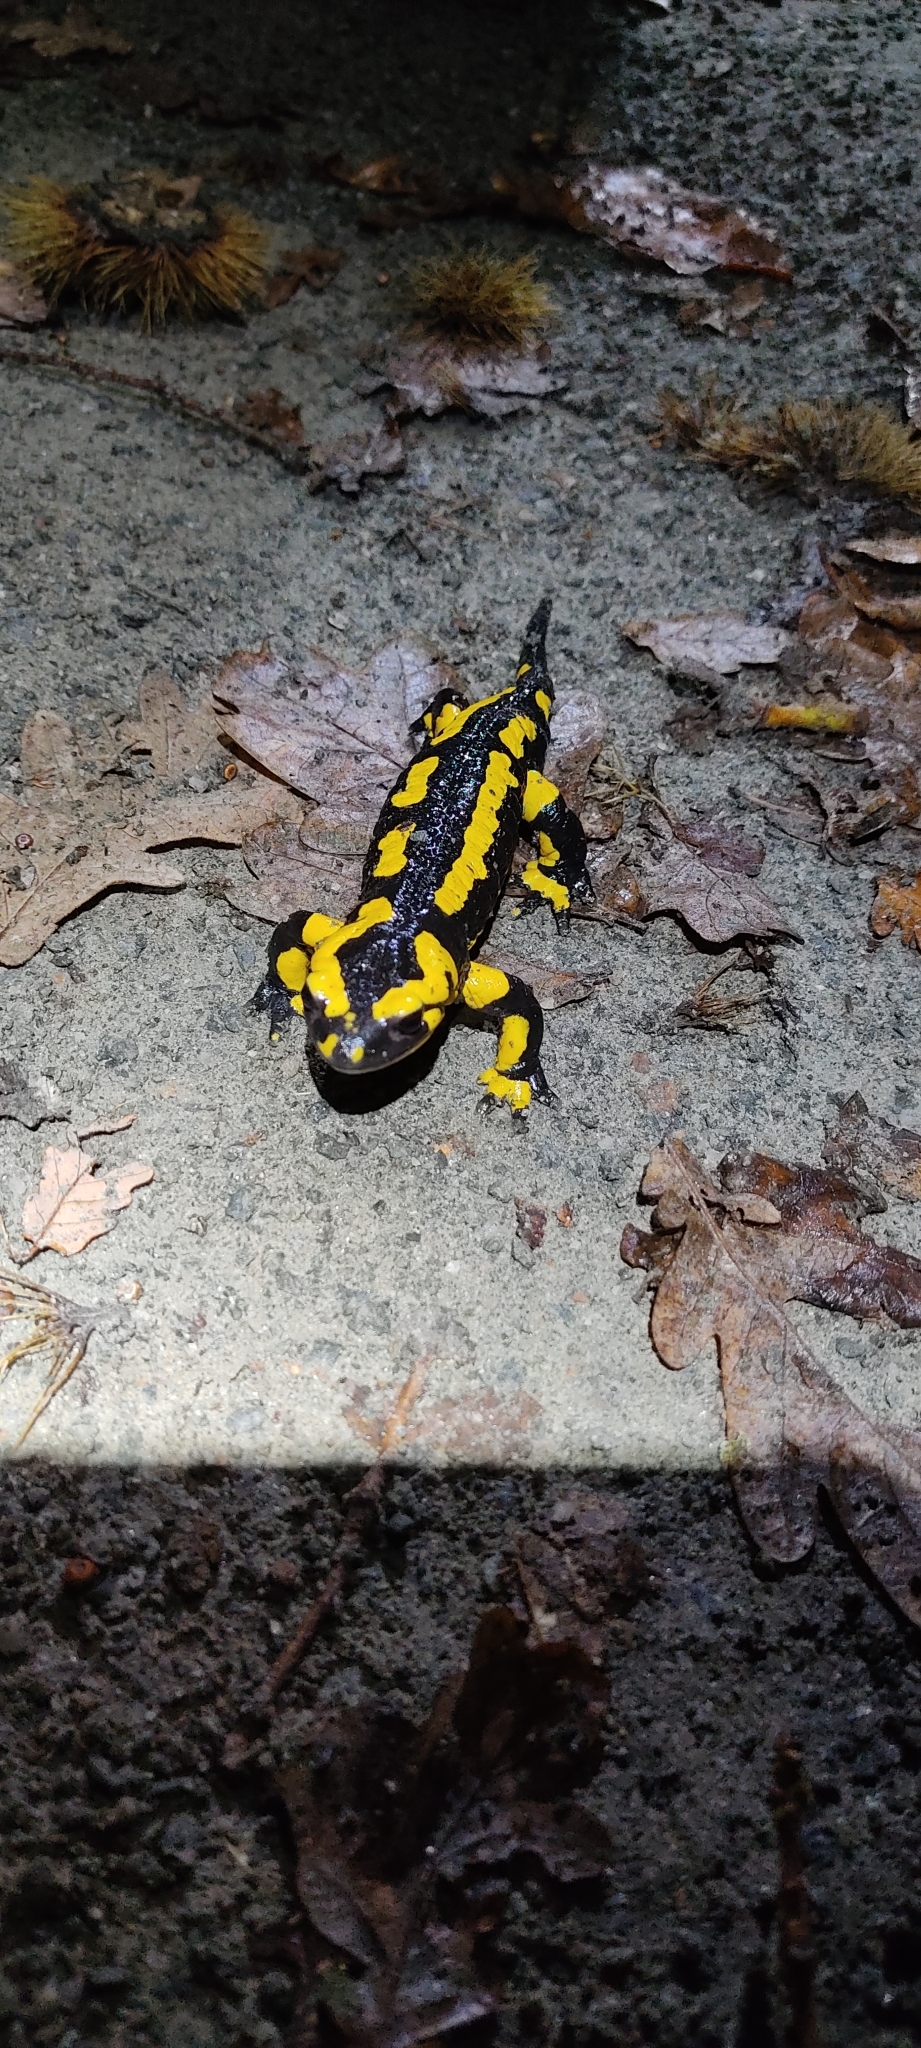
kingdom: Animalia
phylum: Chordata
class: Amphibia
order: Caudata
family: Salamandridae
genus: Salamandra
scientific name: Salamandra salamandra
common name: Fire salamander
